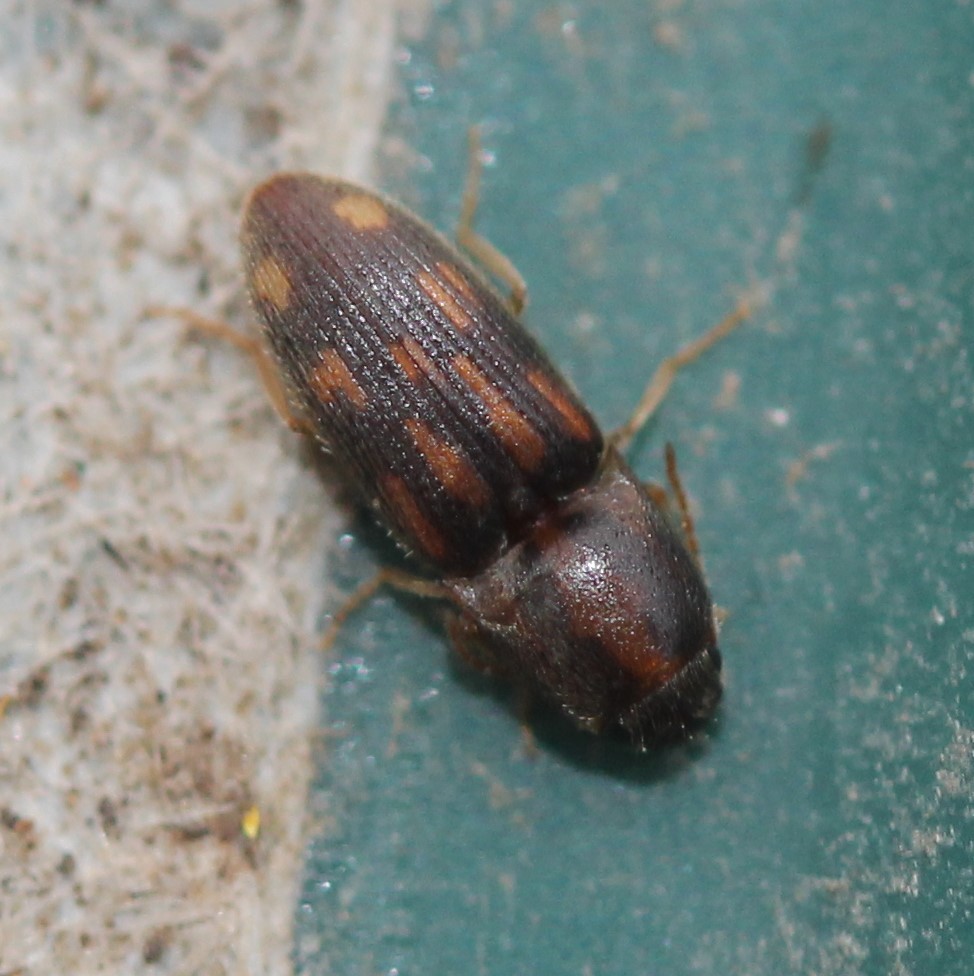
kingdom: Animalia
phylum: Arthropoda
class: Insecta
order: Coleoptera
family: Elateridae
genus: Monocrepidius
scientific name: Monocrepidius bellus
